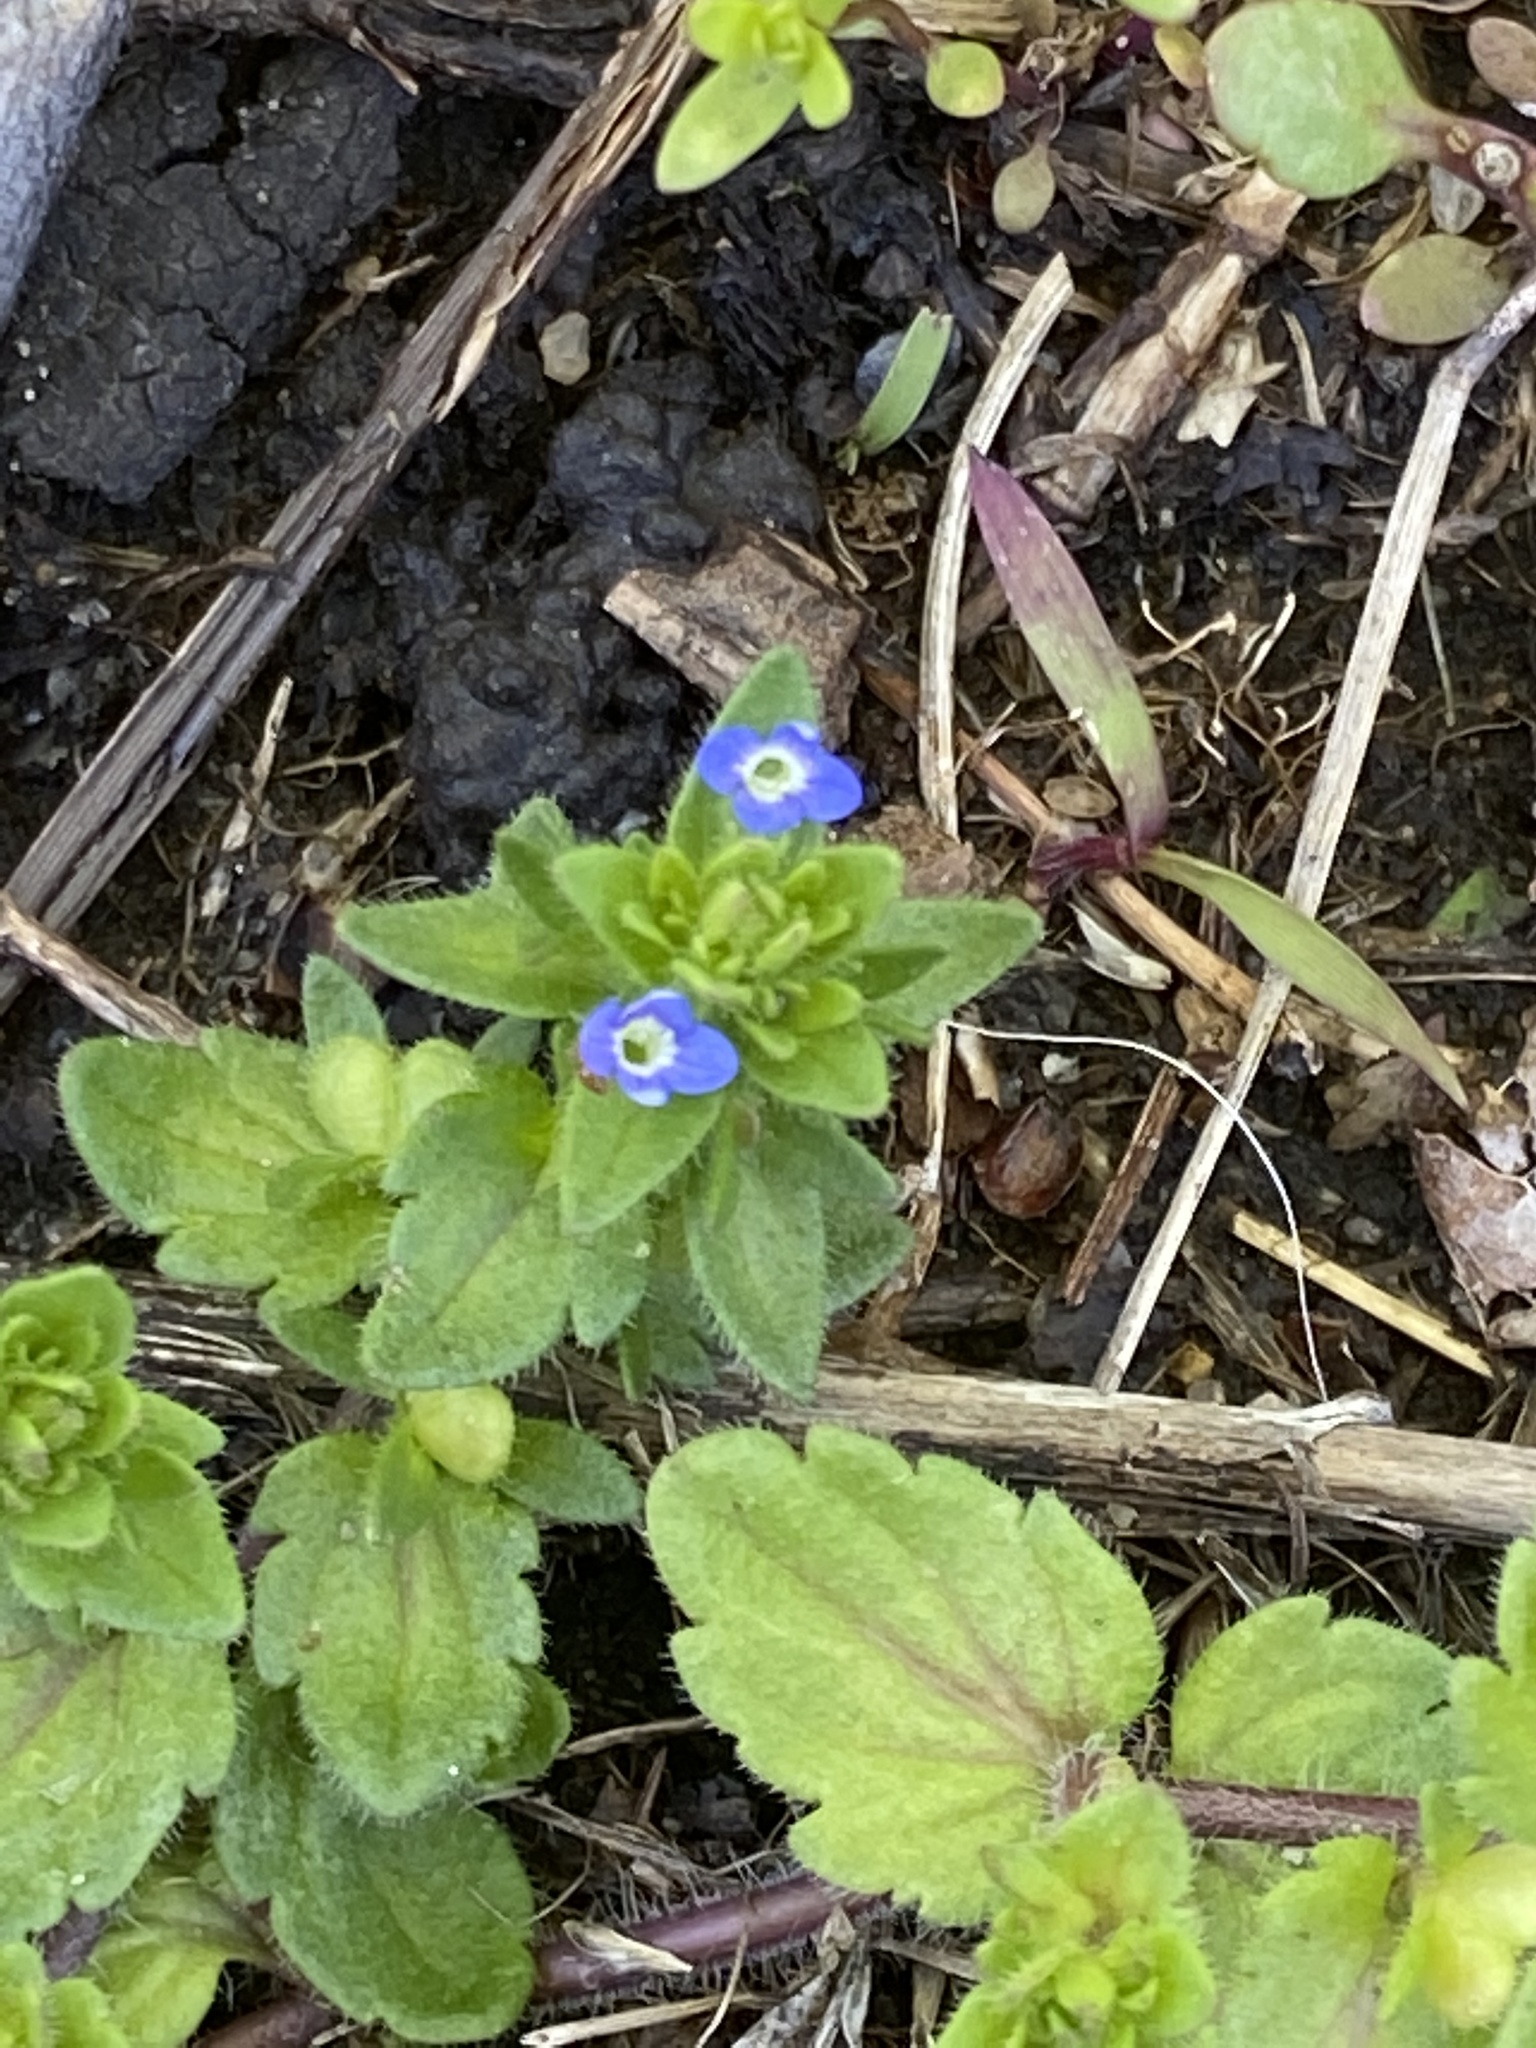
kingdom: Plantae
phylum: Tracheophyta
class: Magnoliopsida
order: Lamiales
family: Plantaginaceae
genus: Veronica
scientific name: Veronica arvensis
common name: Corn speedwell
